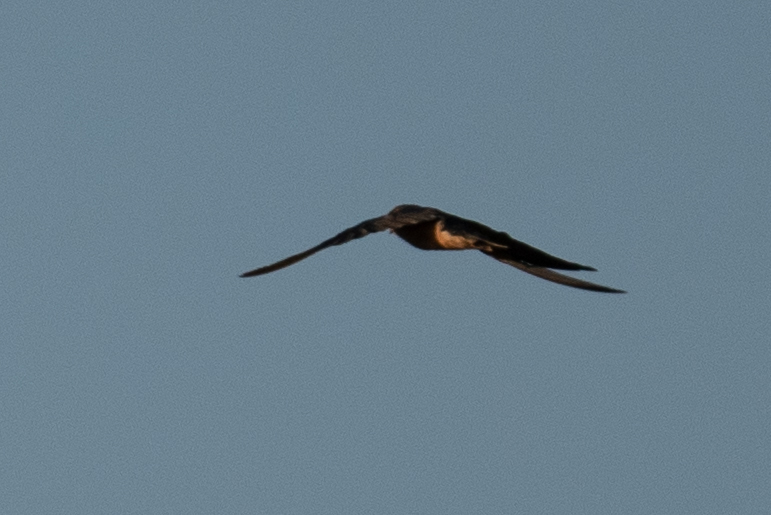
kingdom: Animalia
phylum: Chordata
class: Aves
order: Passeriformes
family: Hirundinidae
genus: Hirundo
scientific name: Hirundo rustica
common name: Barn swallow
